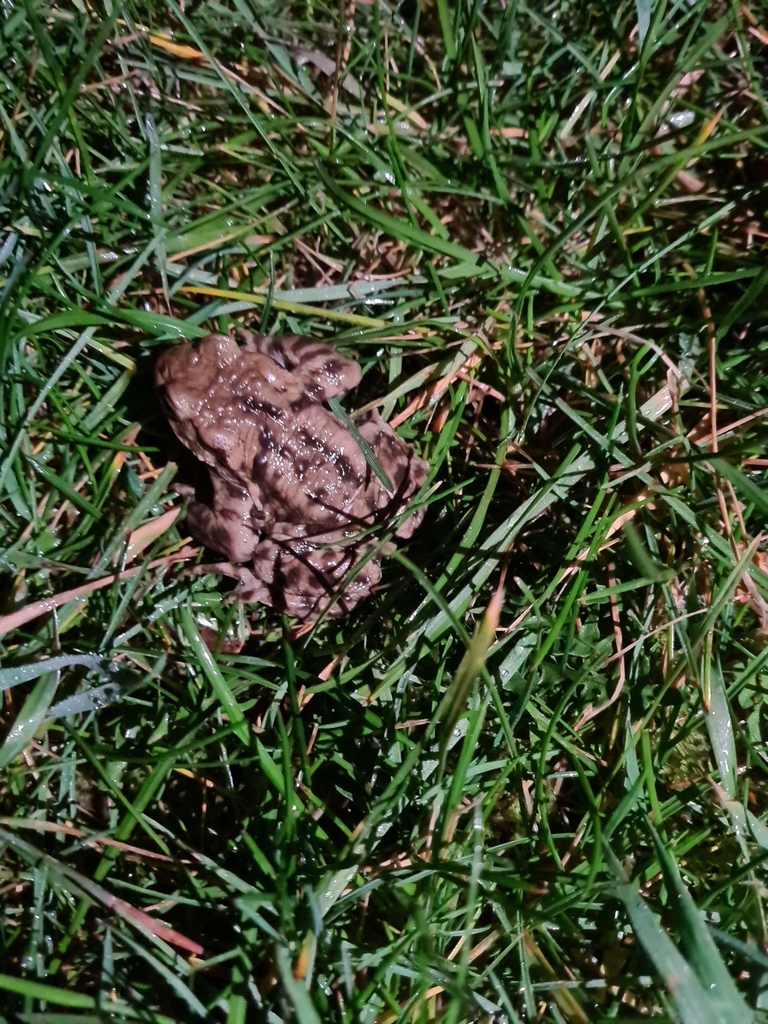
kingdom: Animalia
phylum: Chordata
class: Amphibia
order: Anura
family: Bufonidae
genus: Bufo
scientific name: Bufo bufo
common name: Common toad
